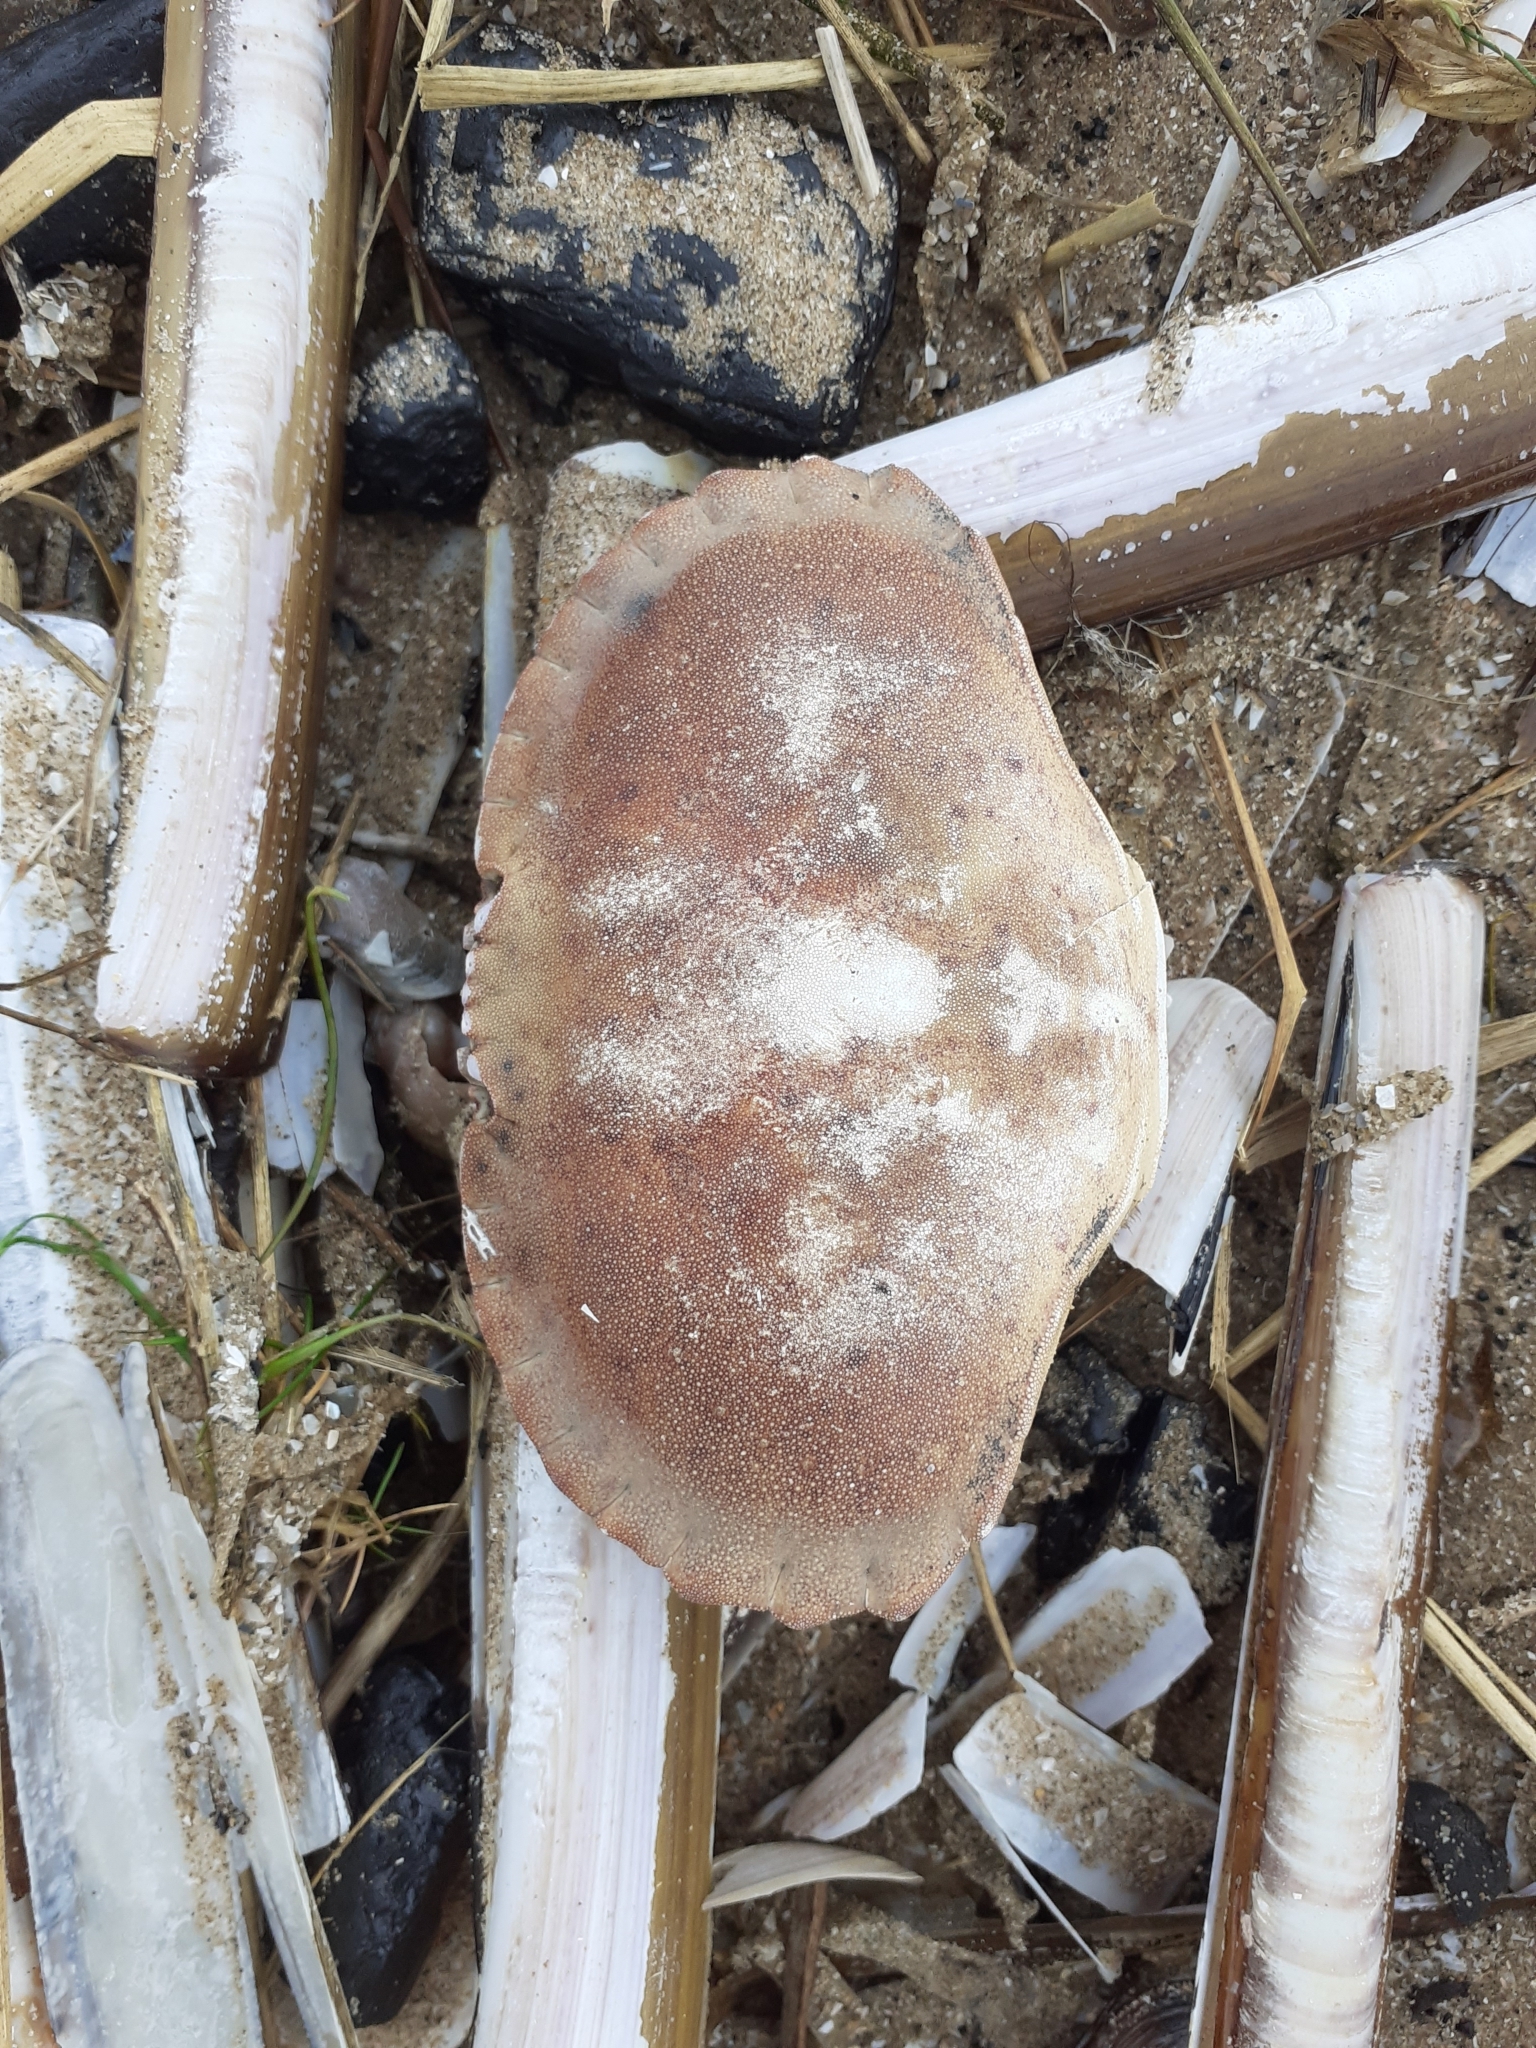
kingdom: Animalia
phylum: Arthropoda
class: Malacostraca
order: Decapoda
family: Cancridae
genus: Cancer
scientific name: Cancer pagurus
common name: Edible crab
